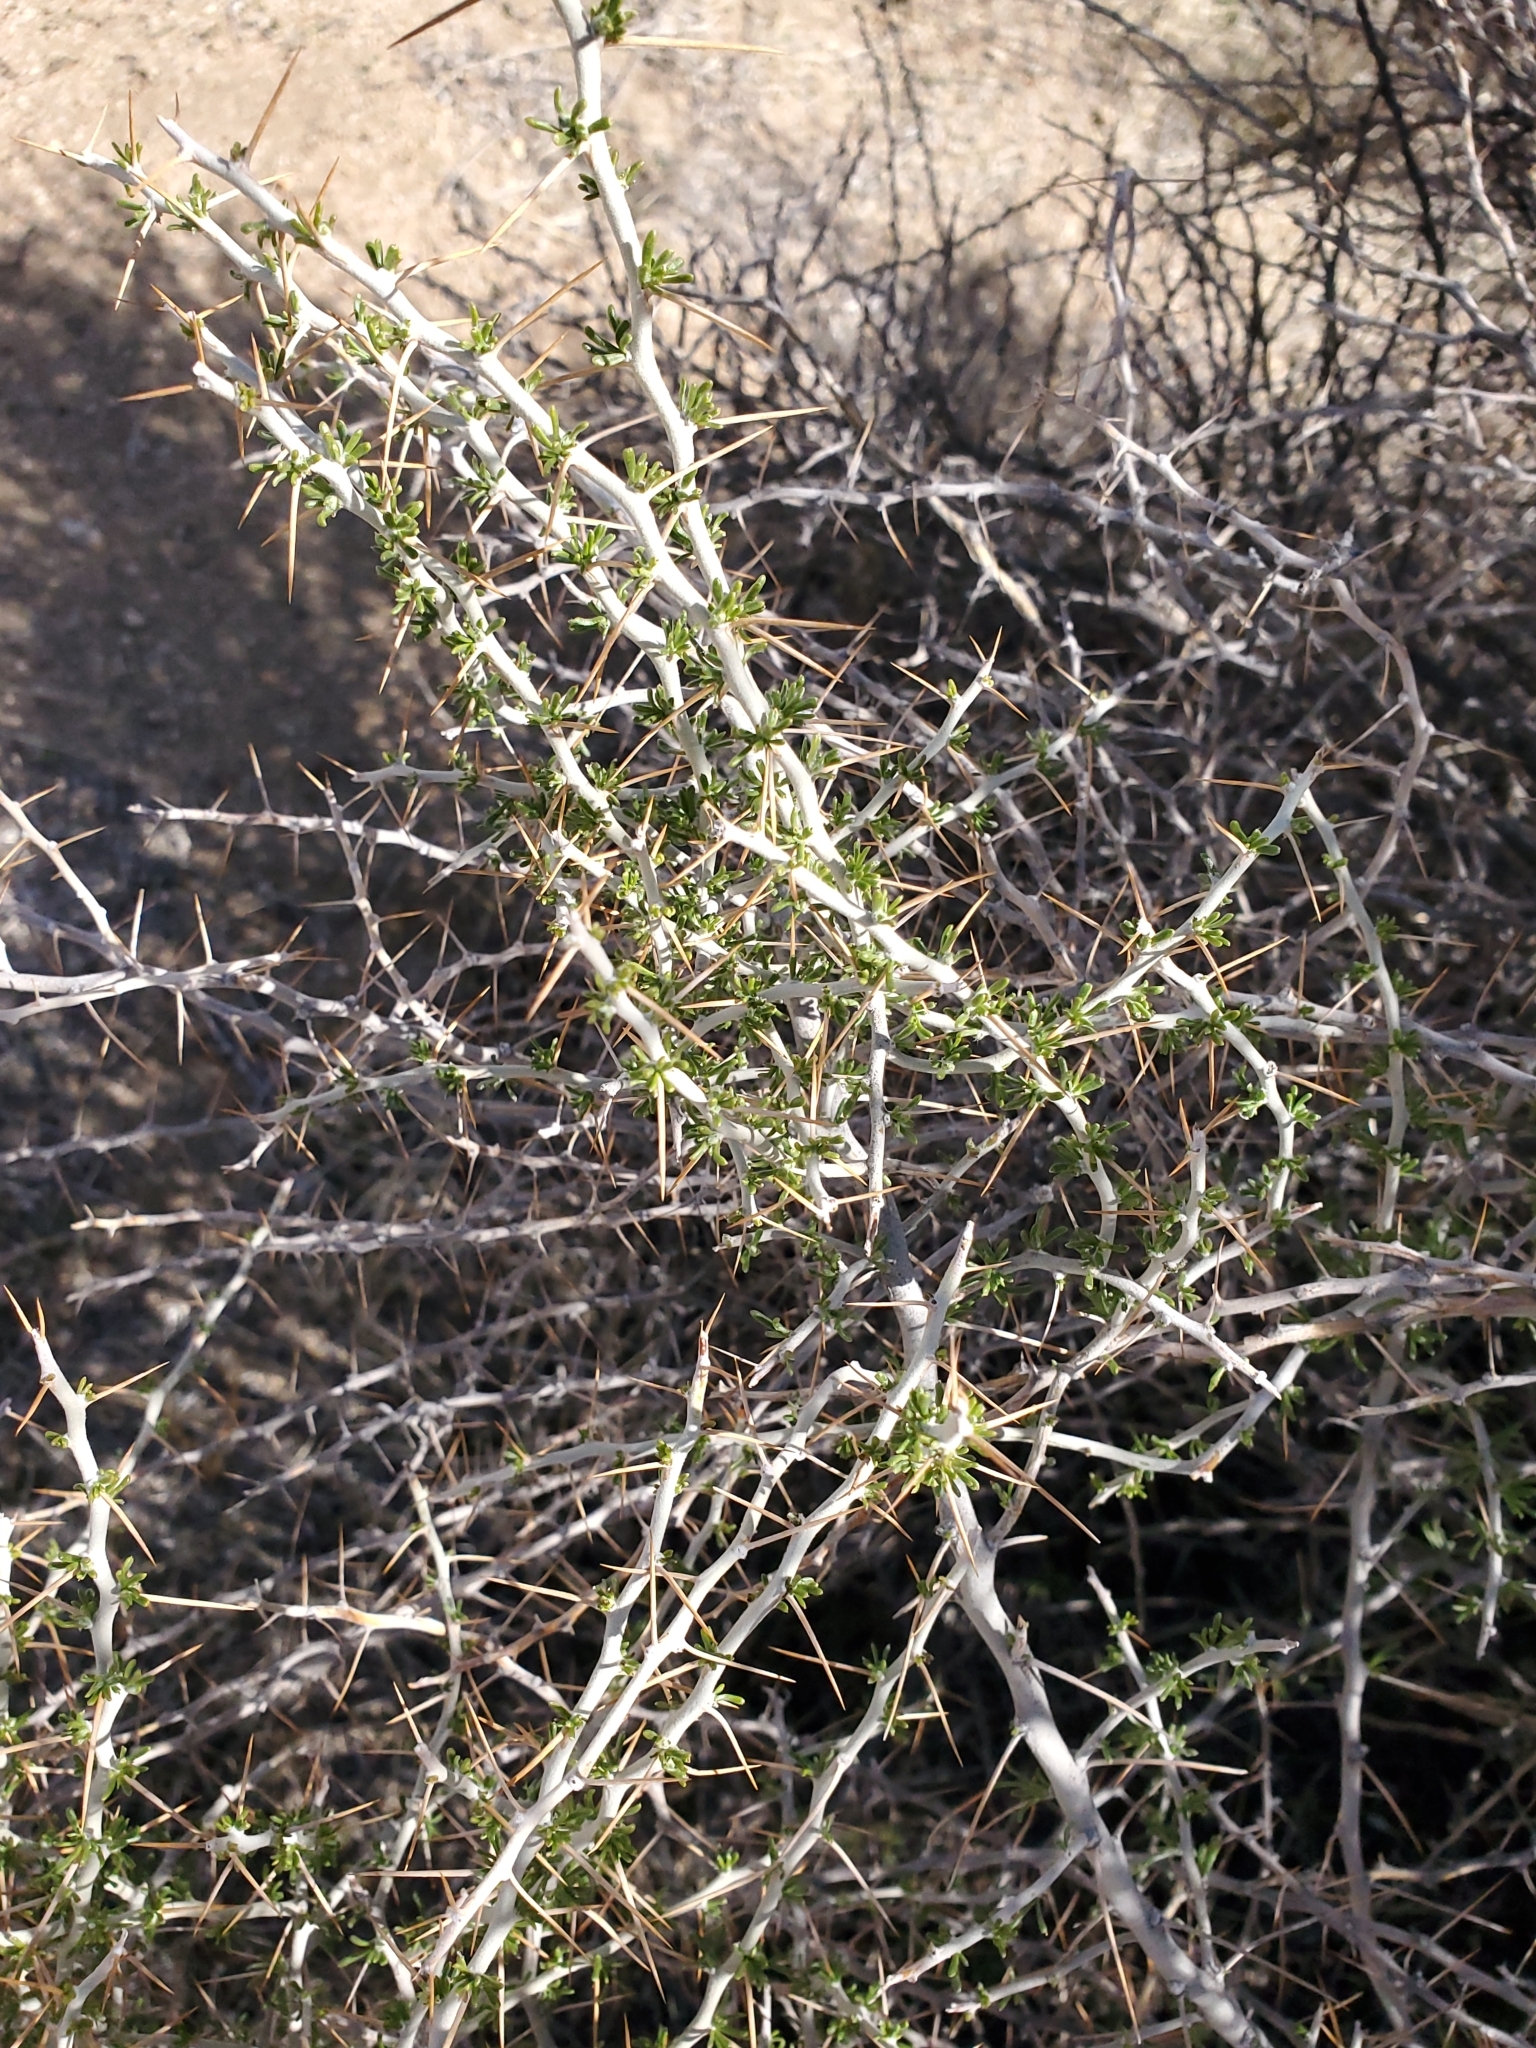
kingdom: Plantae
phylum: Tracheophyta
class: Magnoliopsida
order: Asterales
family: Asteraceae
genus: Tetradymia
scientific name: Tetradymia axillaris
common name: Long-spine horsebrush
